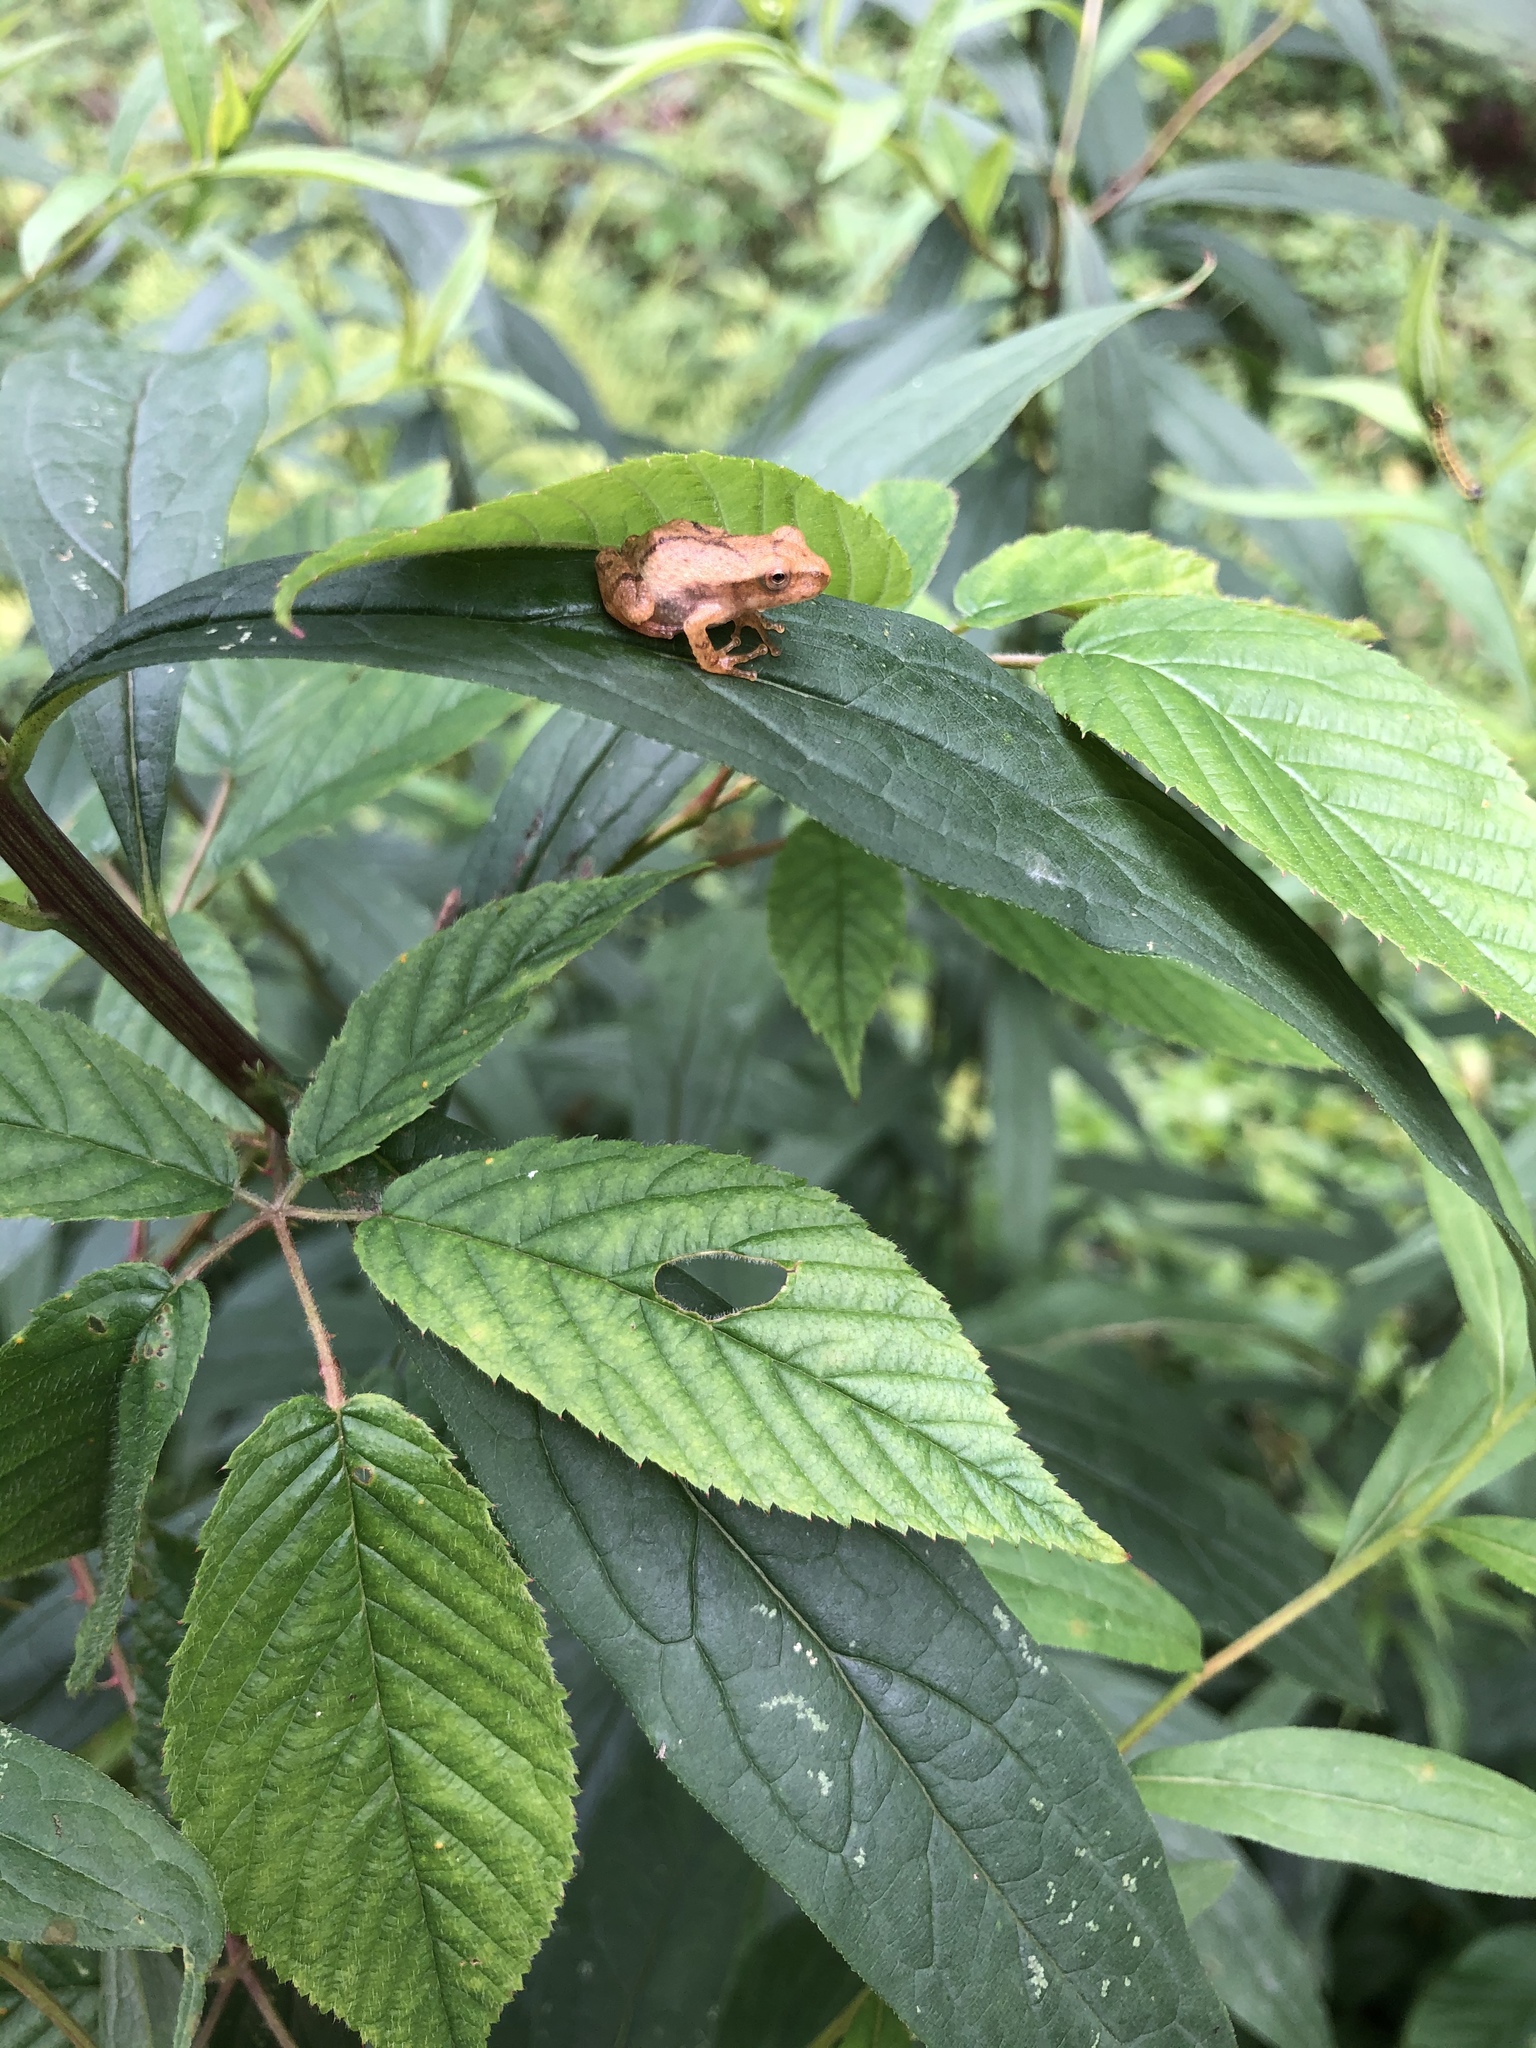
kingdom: Animalia
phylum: Chordata
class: Amphibia
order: Anura
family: Hylidae
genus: Pseudacris
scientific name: Pseudacris crucifer
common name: Spring peeper
